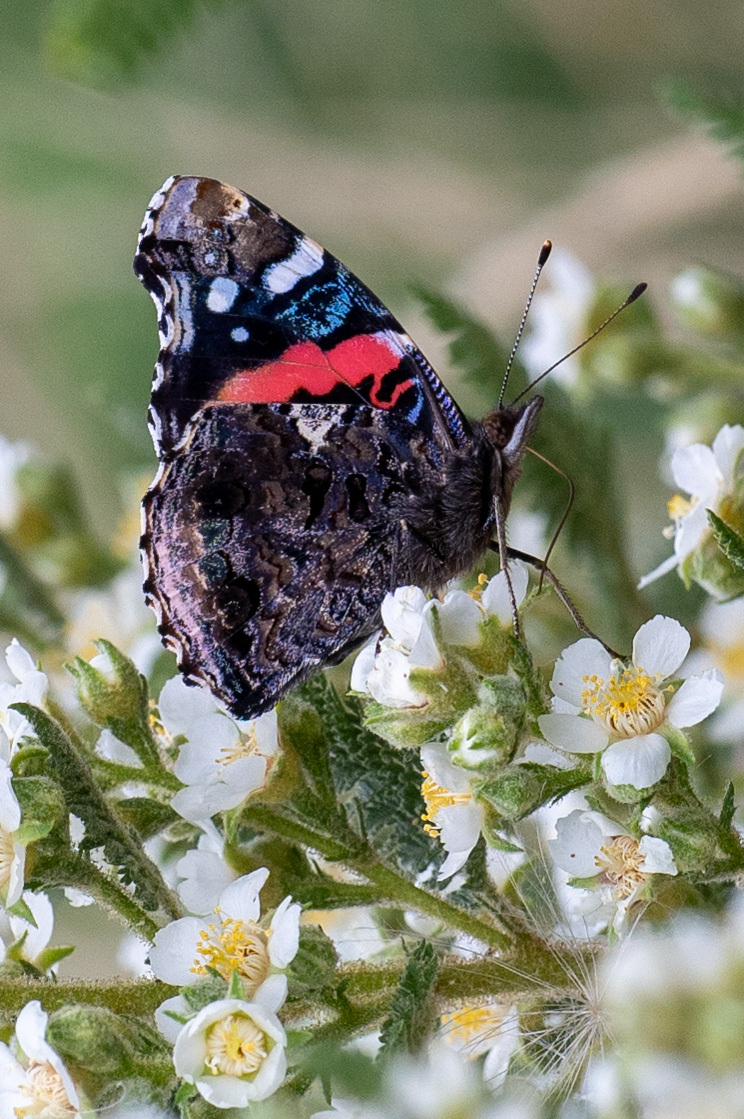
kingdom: Animalia
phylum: Arthropoda
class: Insecta
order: Lepidoptera
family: Nymphalidae
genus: Vanessa
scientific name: Vanessa atalanta
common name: Red admiral
